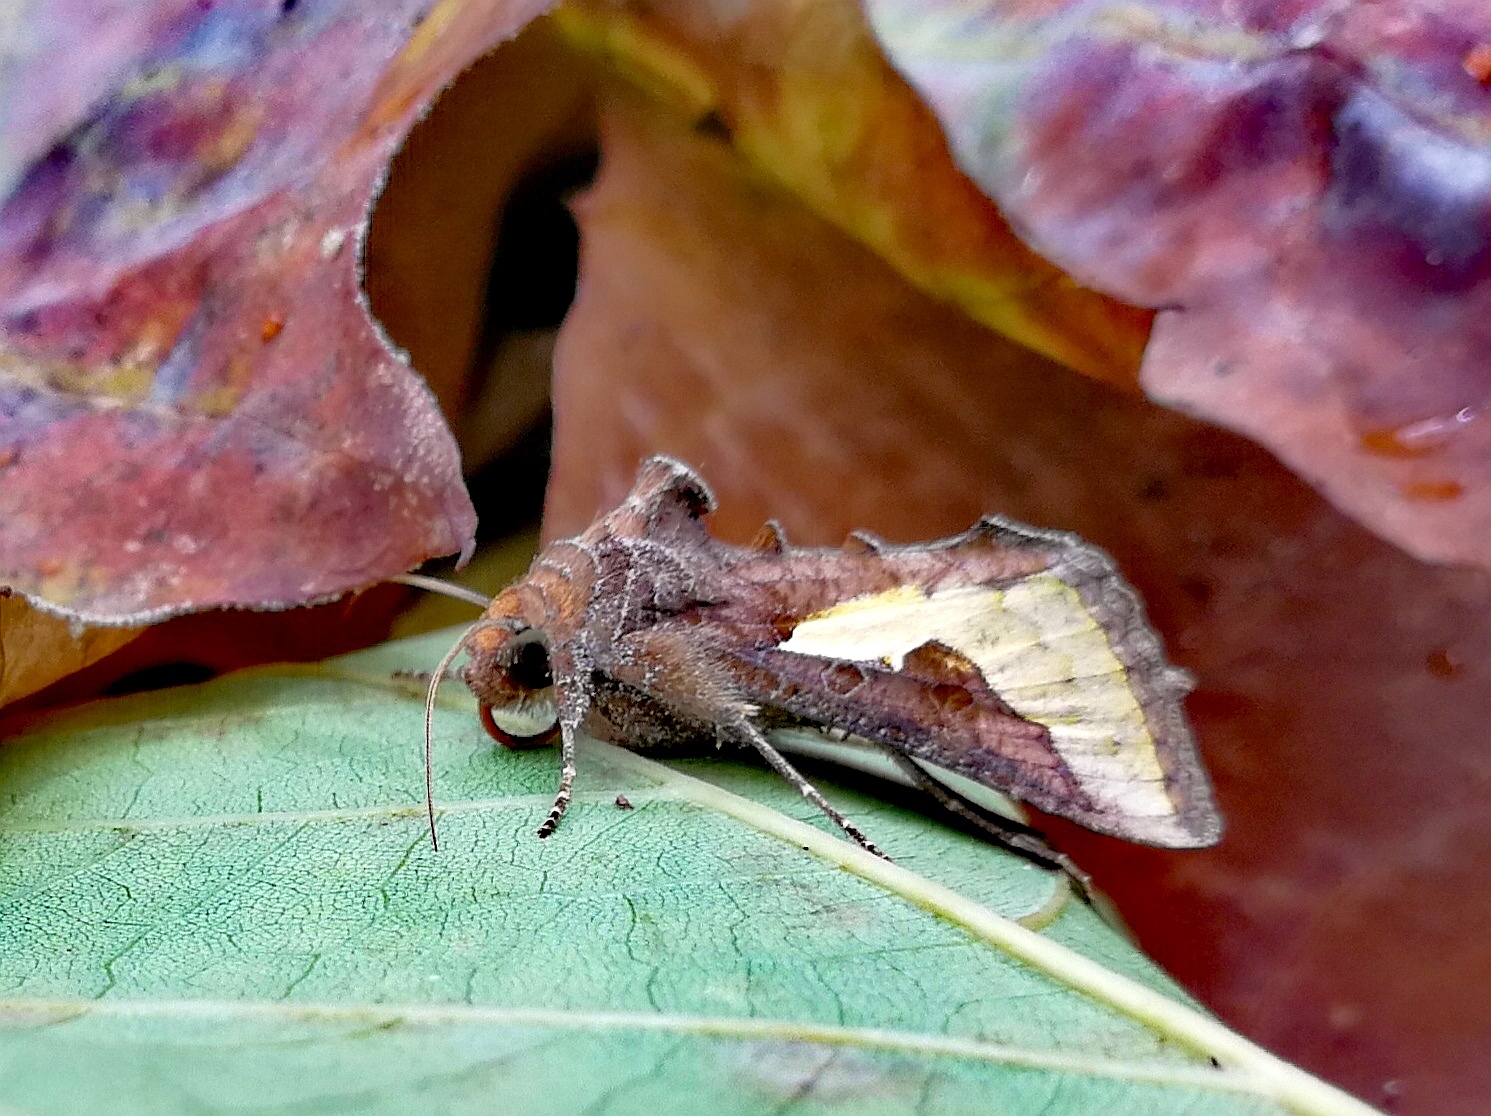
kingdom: Animalia
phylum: Arthropoda
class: Insecta
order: Lepidoptera
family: Noctuidae
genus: Thysanoplusia
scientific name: Thysanoplusia orichalcea
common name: Slender burnished brass, golden plusia
